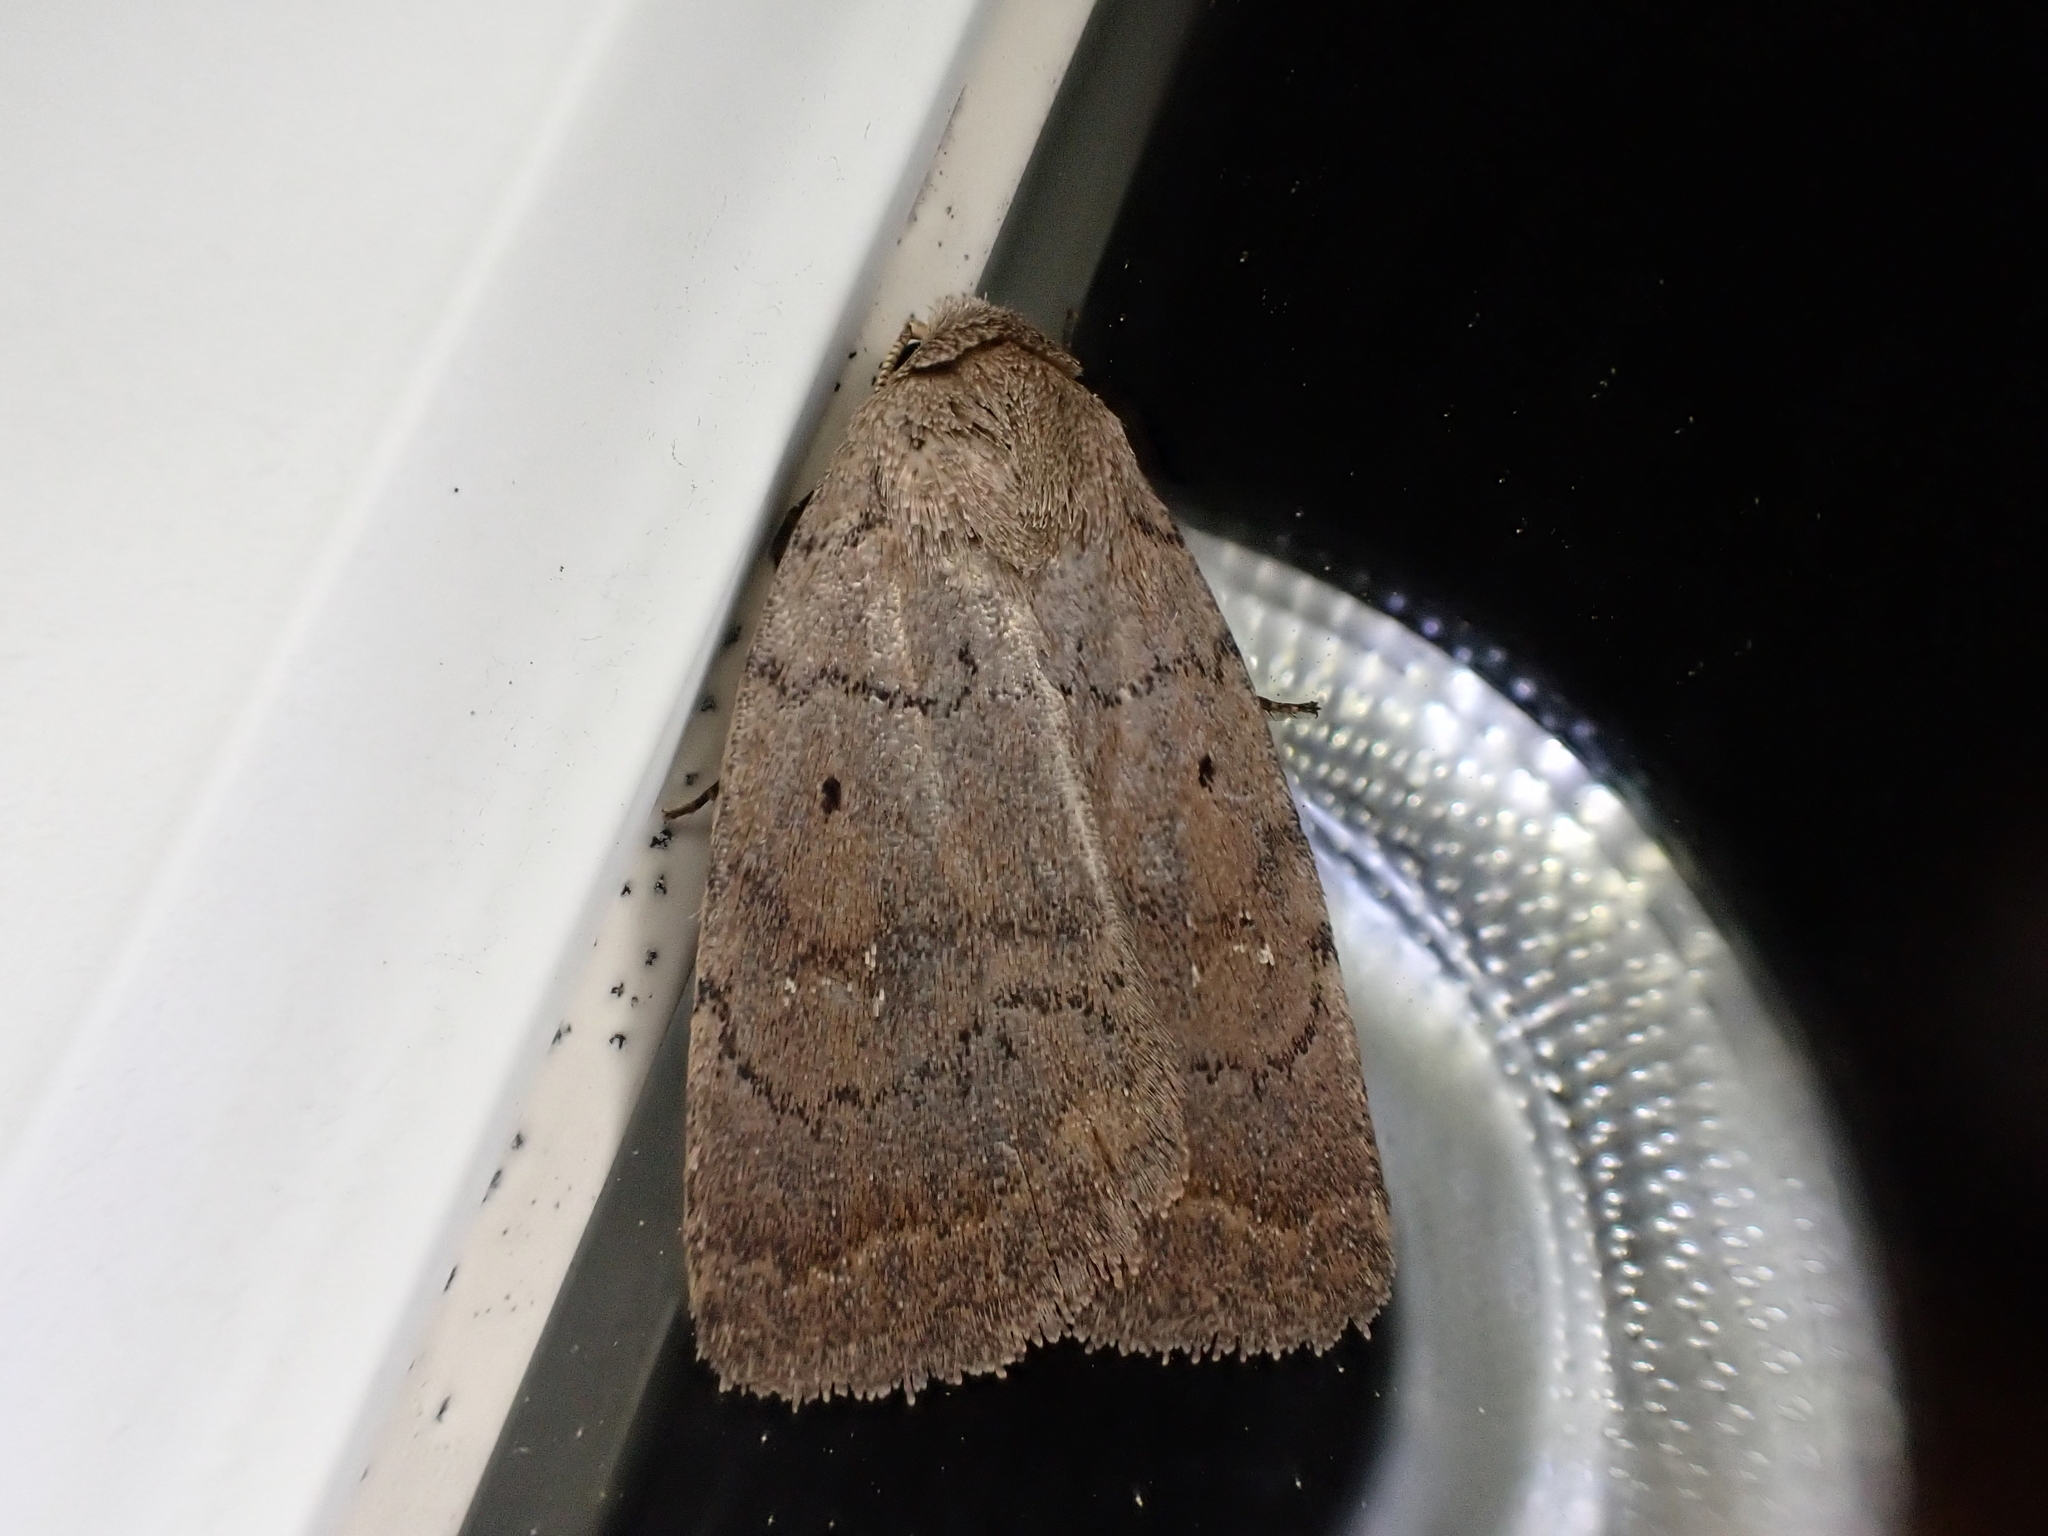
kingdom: Animalia
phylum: Arthropoda
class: Insecta
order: Lepidoptera
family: Noctuidae
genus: Athetis
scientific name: Athetis tarda
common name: Slowpoke moth
